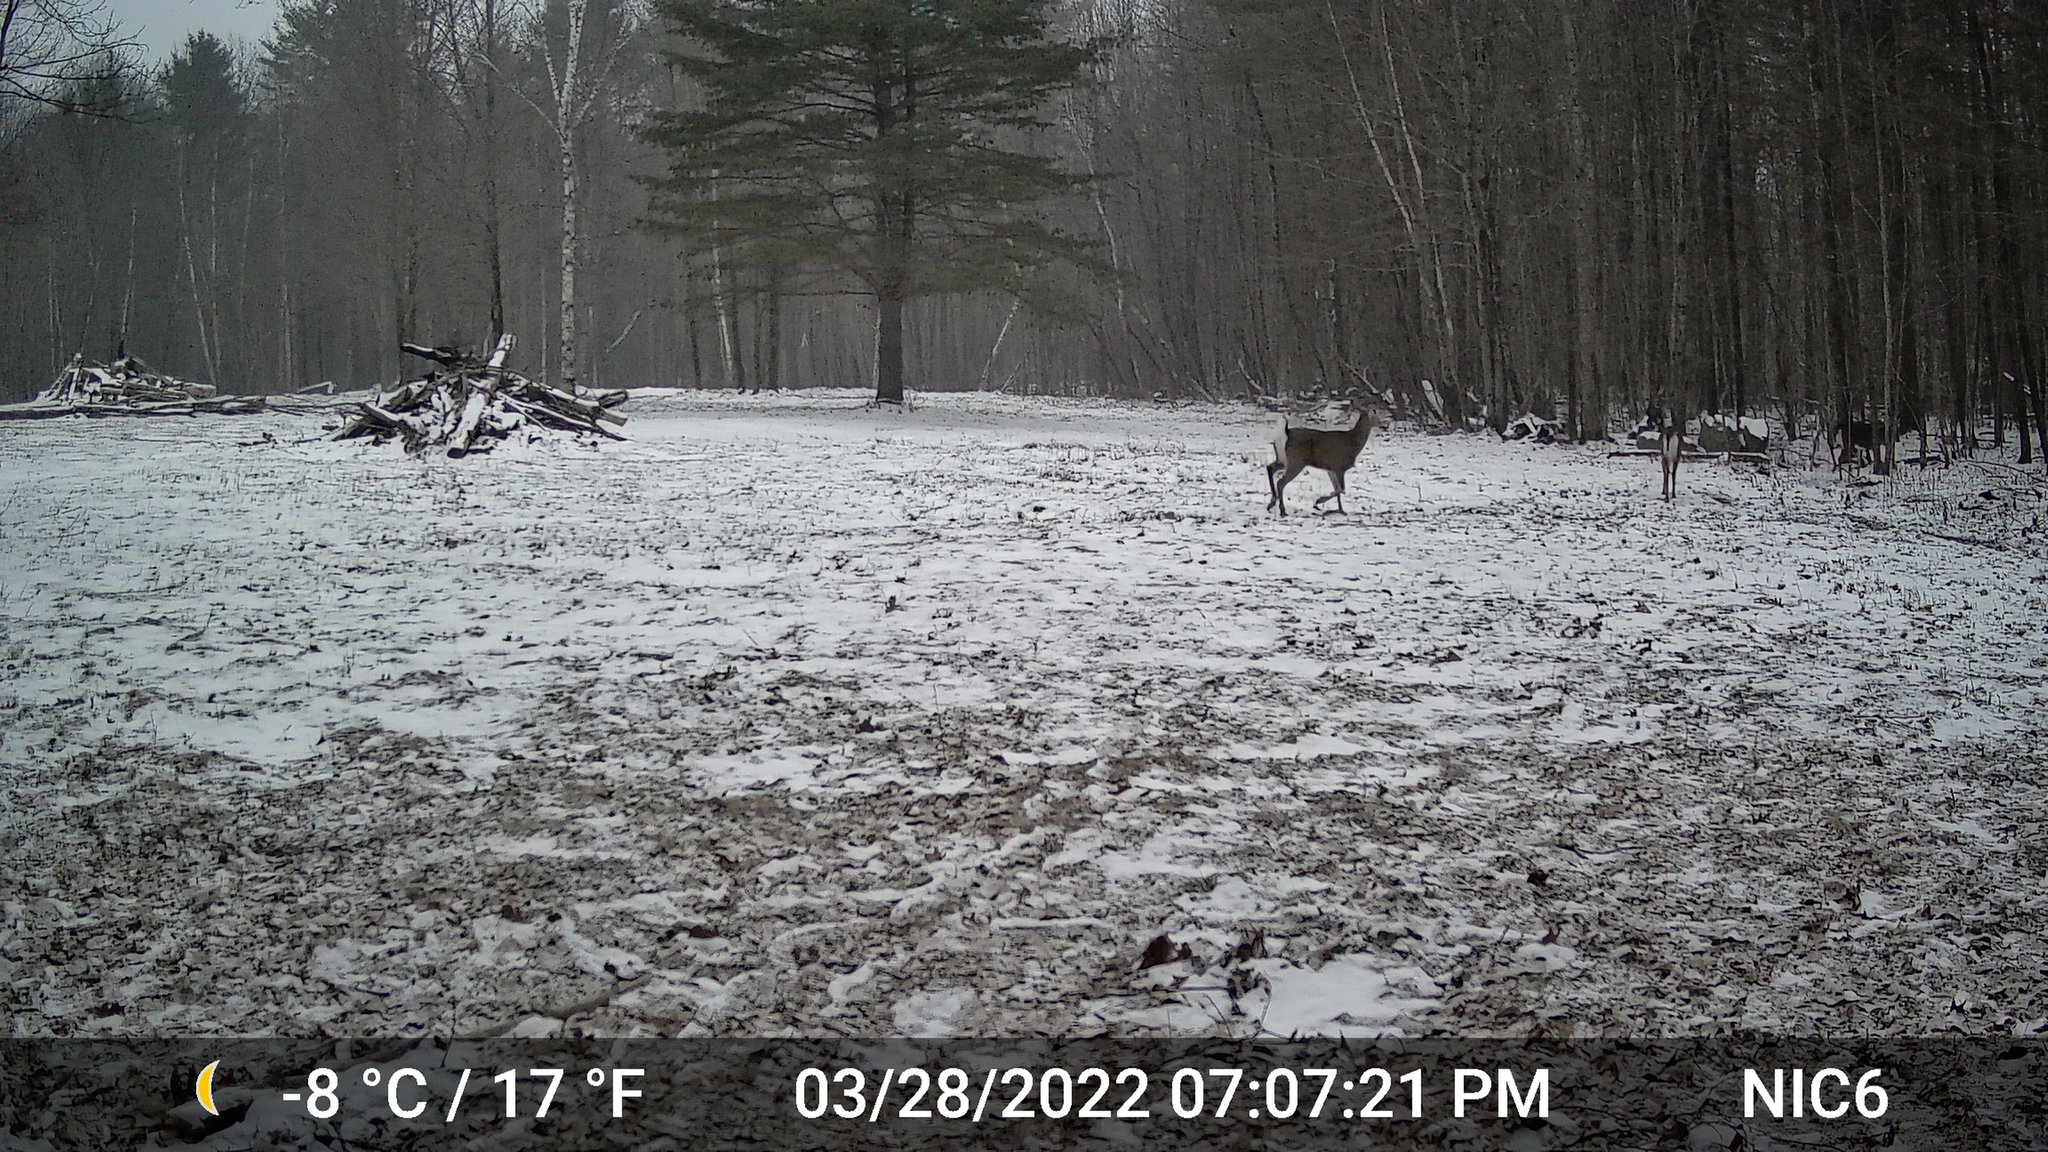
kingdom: Animalia
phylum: Chordata
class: Mammalia
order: Artiodactyla
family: Cervidae
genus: Odocoileus
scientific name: Odocoileus virginianus
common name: White-tailed deer
